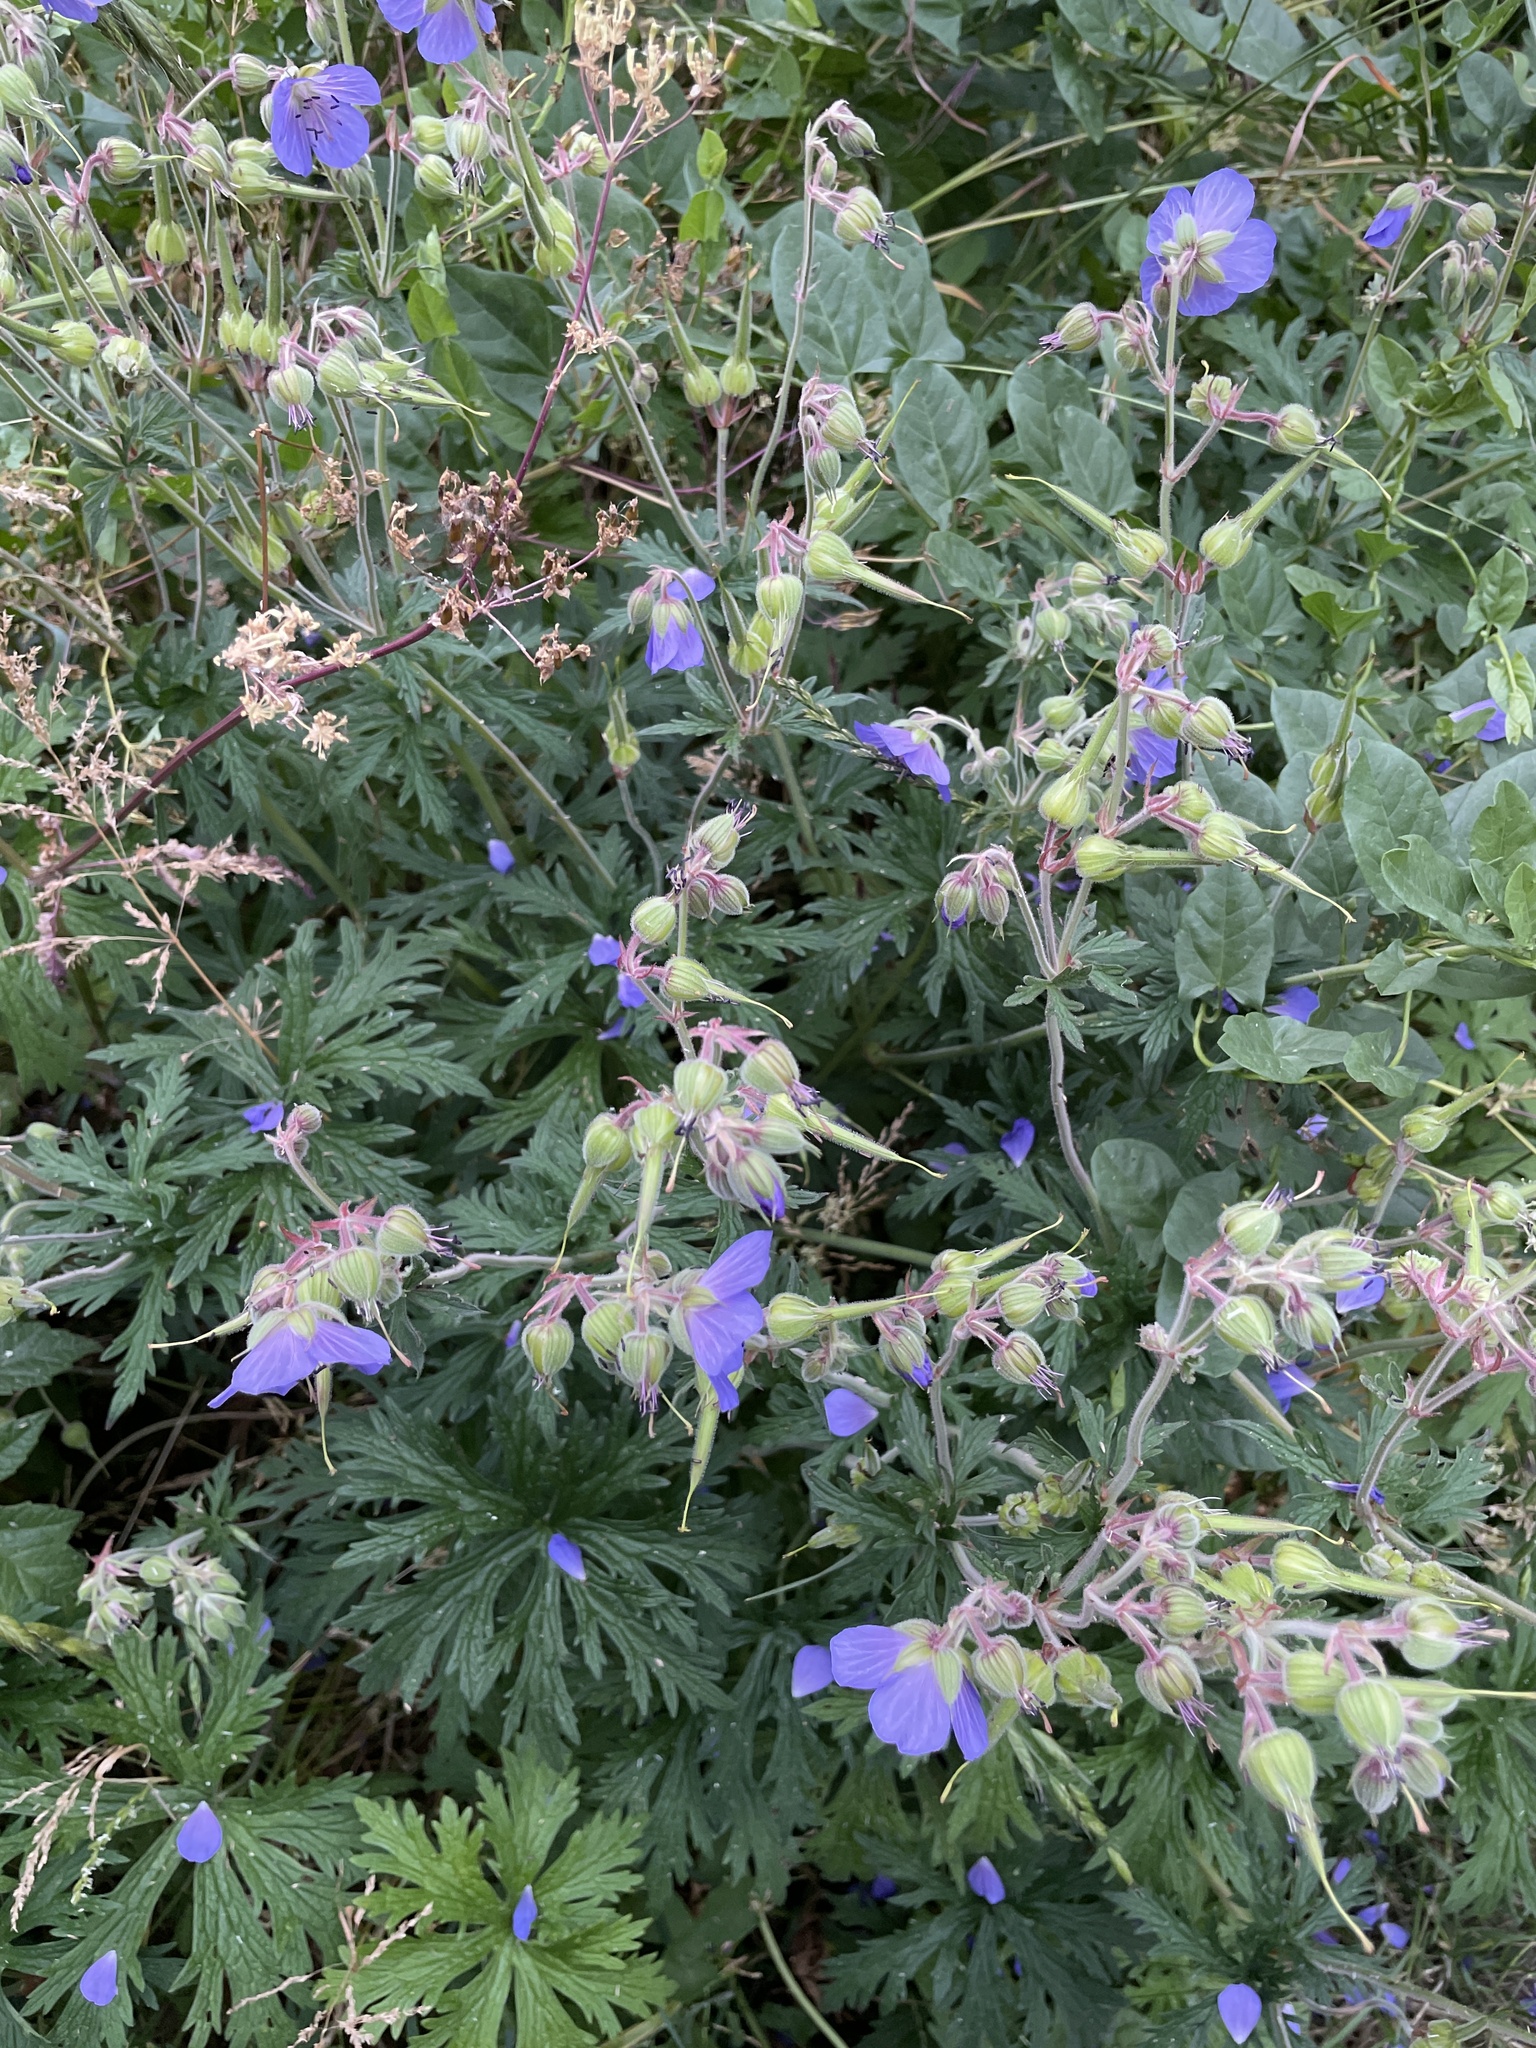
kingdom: Plantae
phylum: Tracheophyta
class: Magnoliopsida
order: Geraniales
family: Geraniaceae
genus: Geranium
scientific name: Geranium pratense
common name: Meadow crane's-bill
